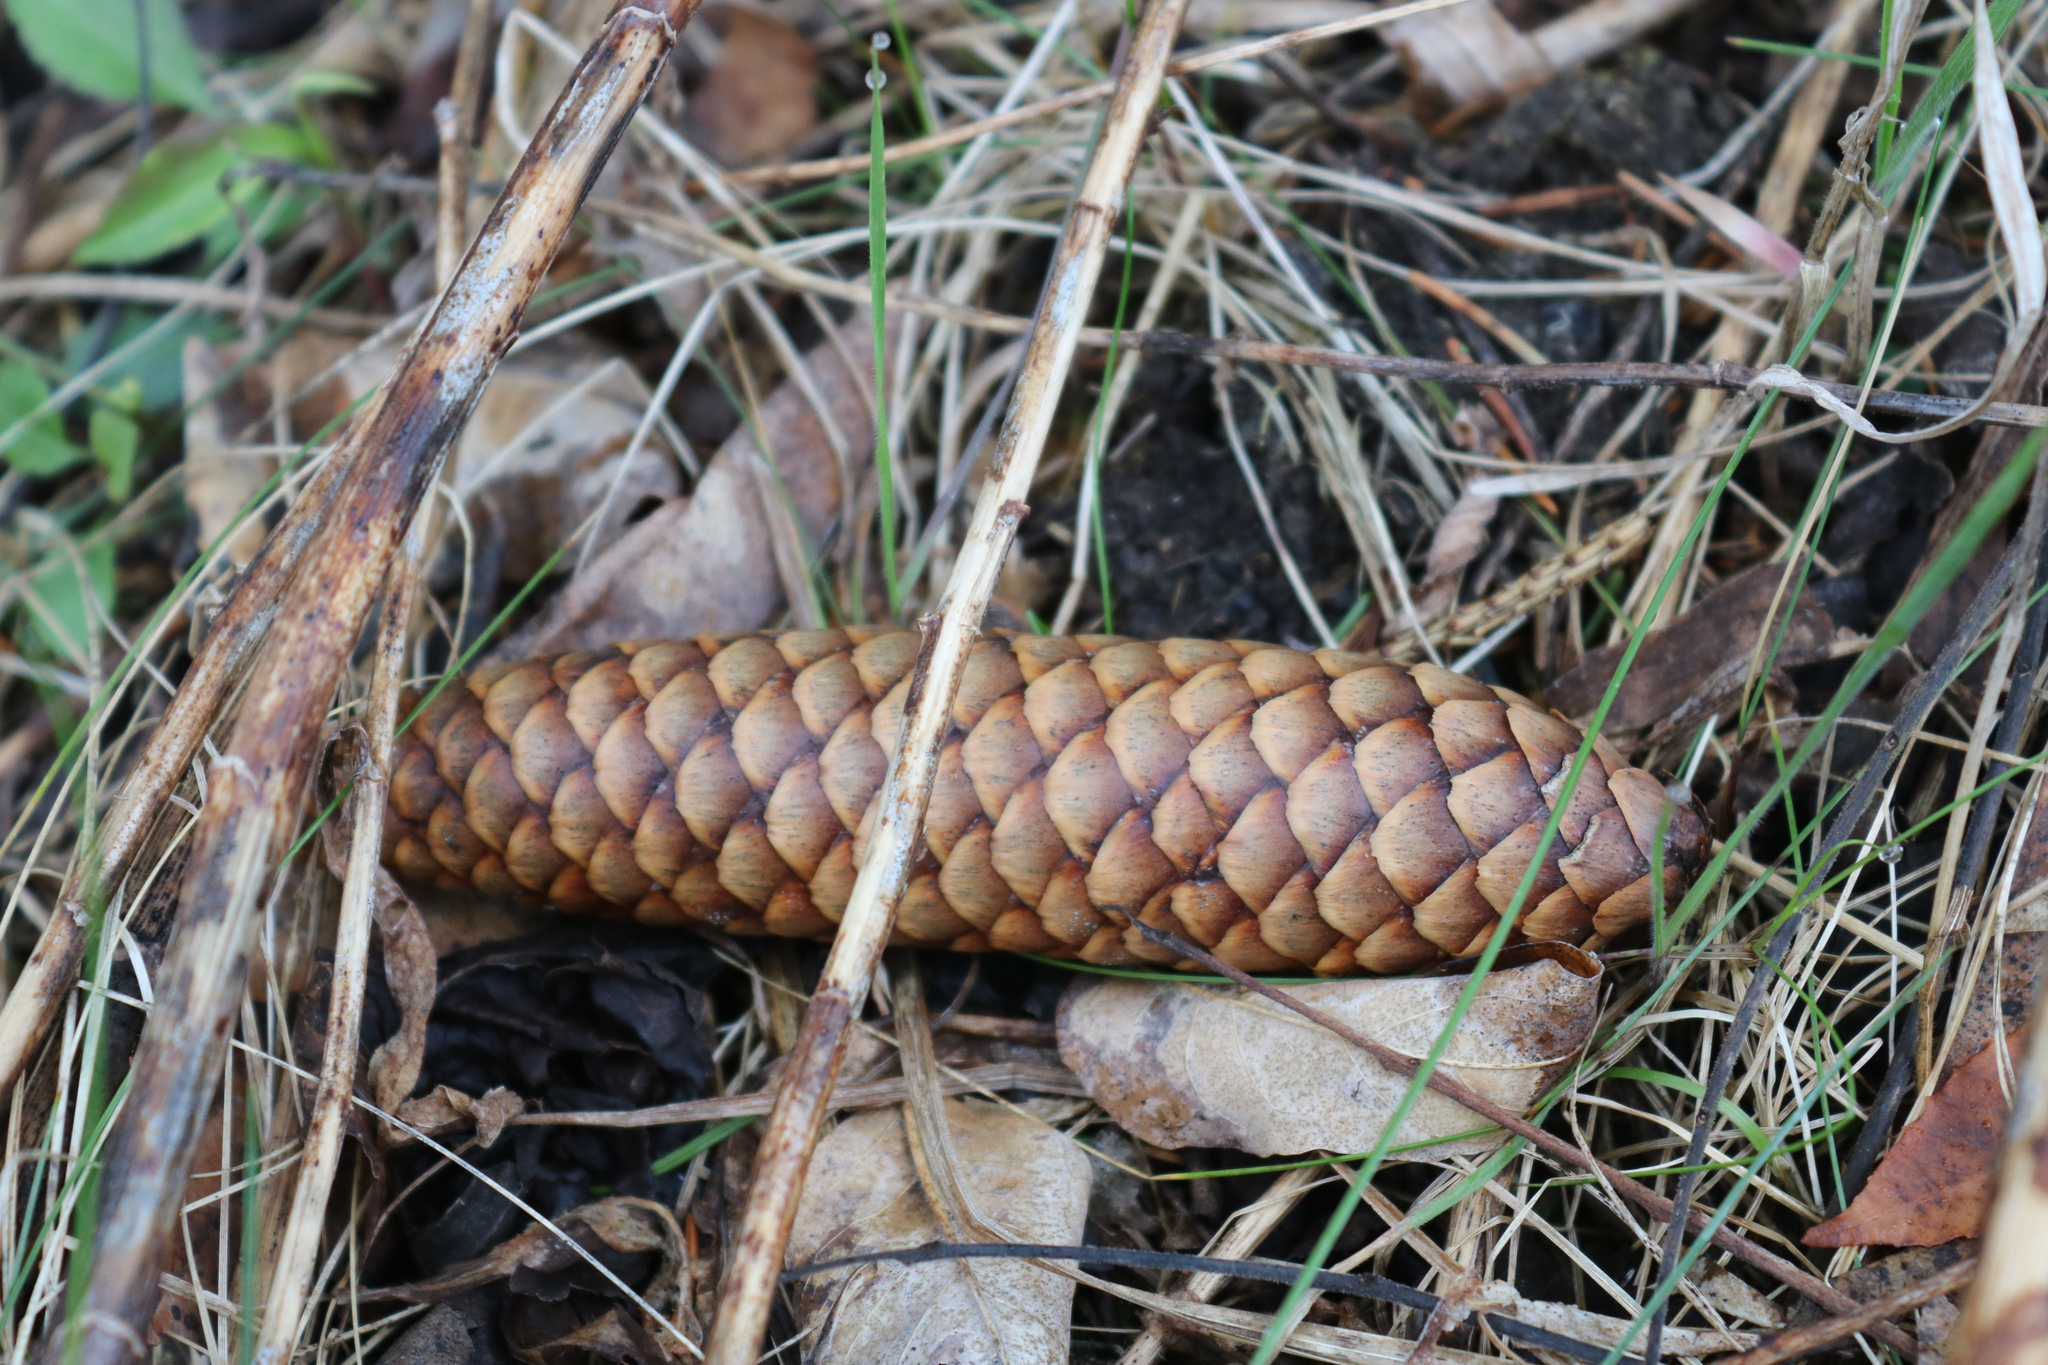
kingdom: Plantae
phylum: Tracheophyta
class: Pinopsida
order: Pinales
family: Pinaceae
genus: Picea
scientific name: Picea abies
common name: Norway spruce
